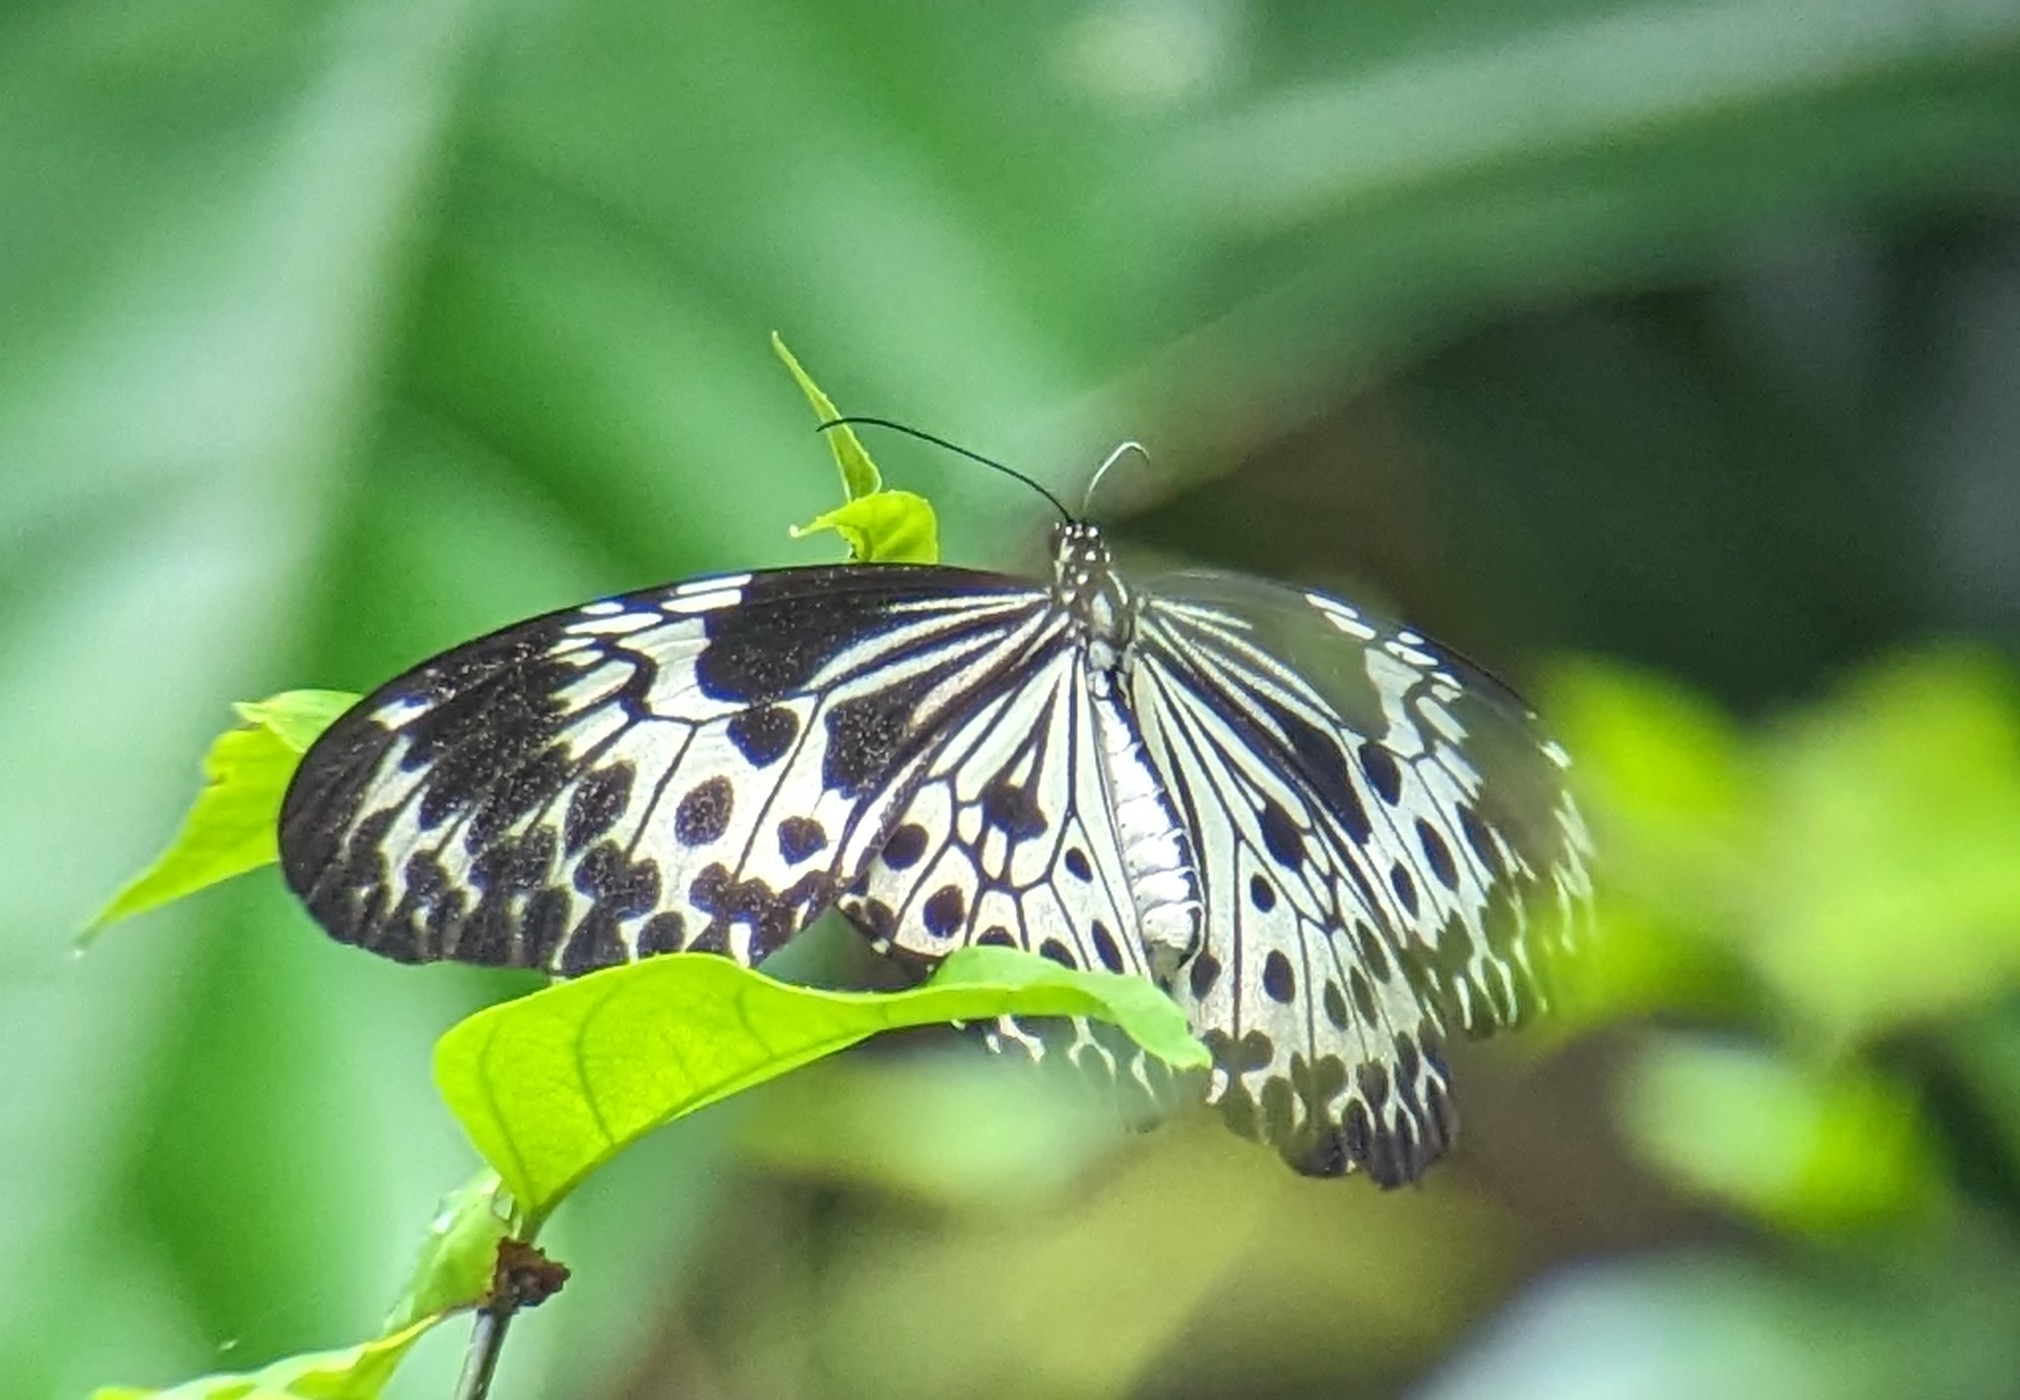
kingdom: Animalia
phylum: Arthropoda
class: Insecta
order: Lepidoptera
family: Nymphalidae
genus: Idea
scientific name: Idea agamarschana
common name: Andaman tree nymph
